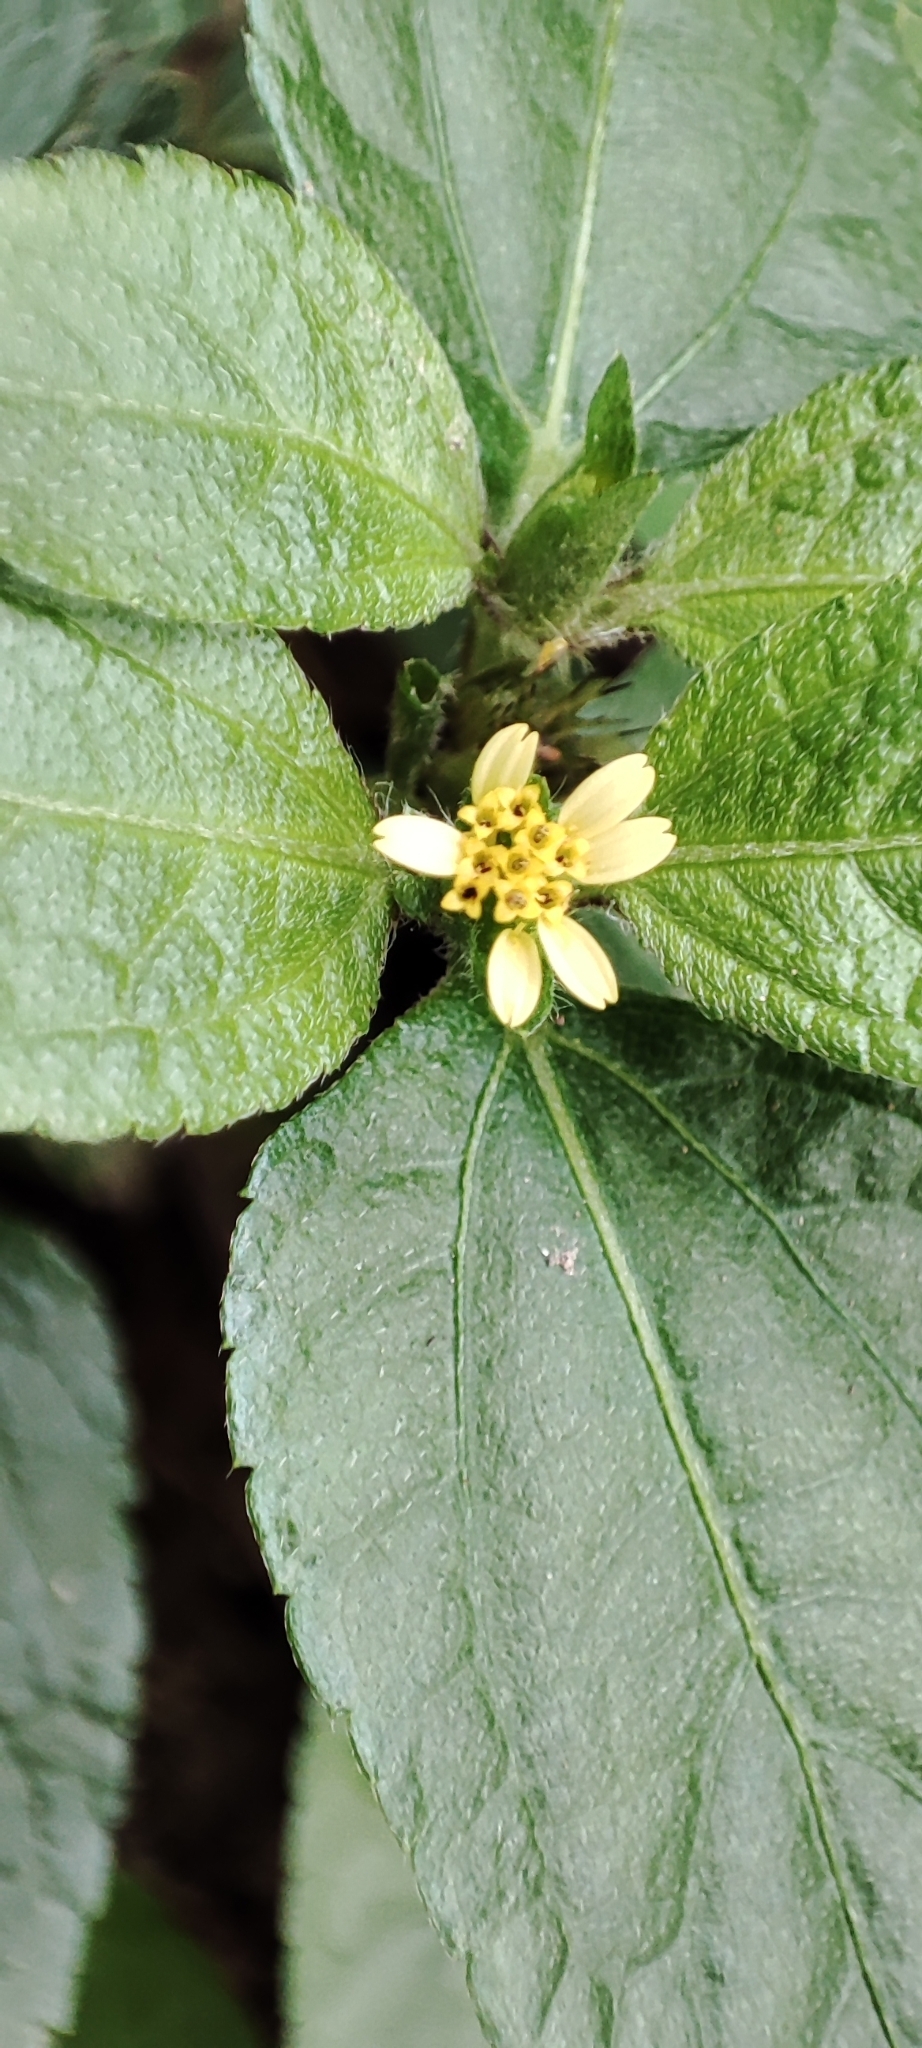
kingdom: Plantae
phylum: Tracheophyta
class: Magnoliopsida
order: Asterales
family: Asteraceae
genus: Synedrella
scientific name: Synedrella nodiflora
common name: Nodeweed
